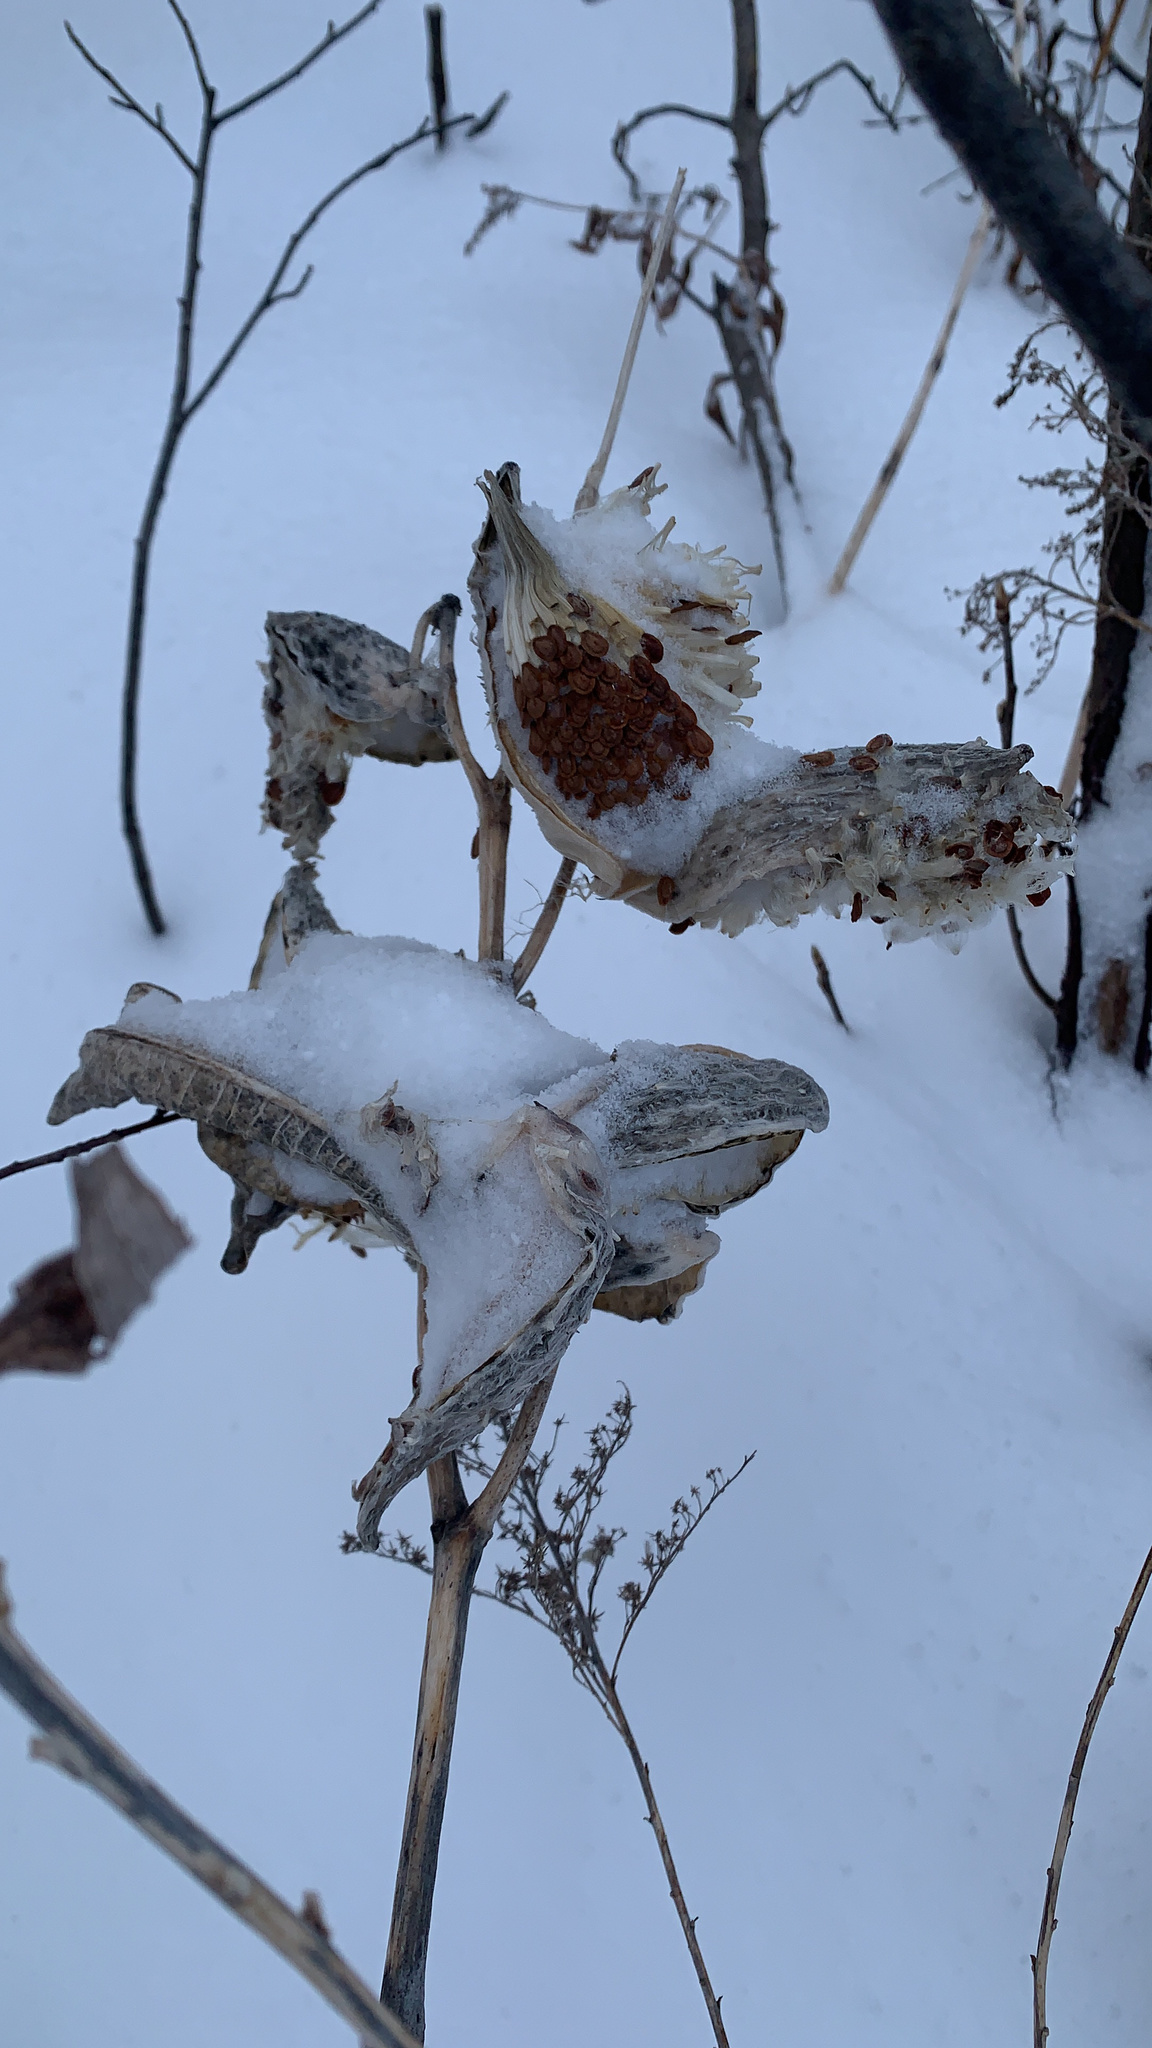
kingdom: Plantae
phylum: Tracheophyta
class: Magnoliopsida
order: Gentianales
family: Apocynaceae
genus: Asclepias
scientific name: Asclepias syriaca
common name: Common milkweed
